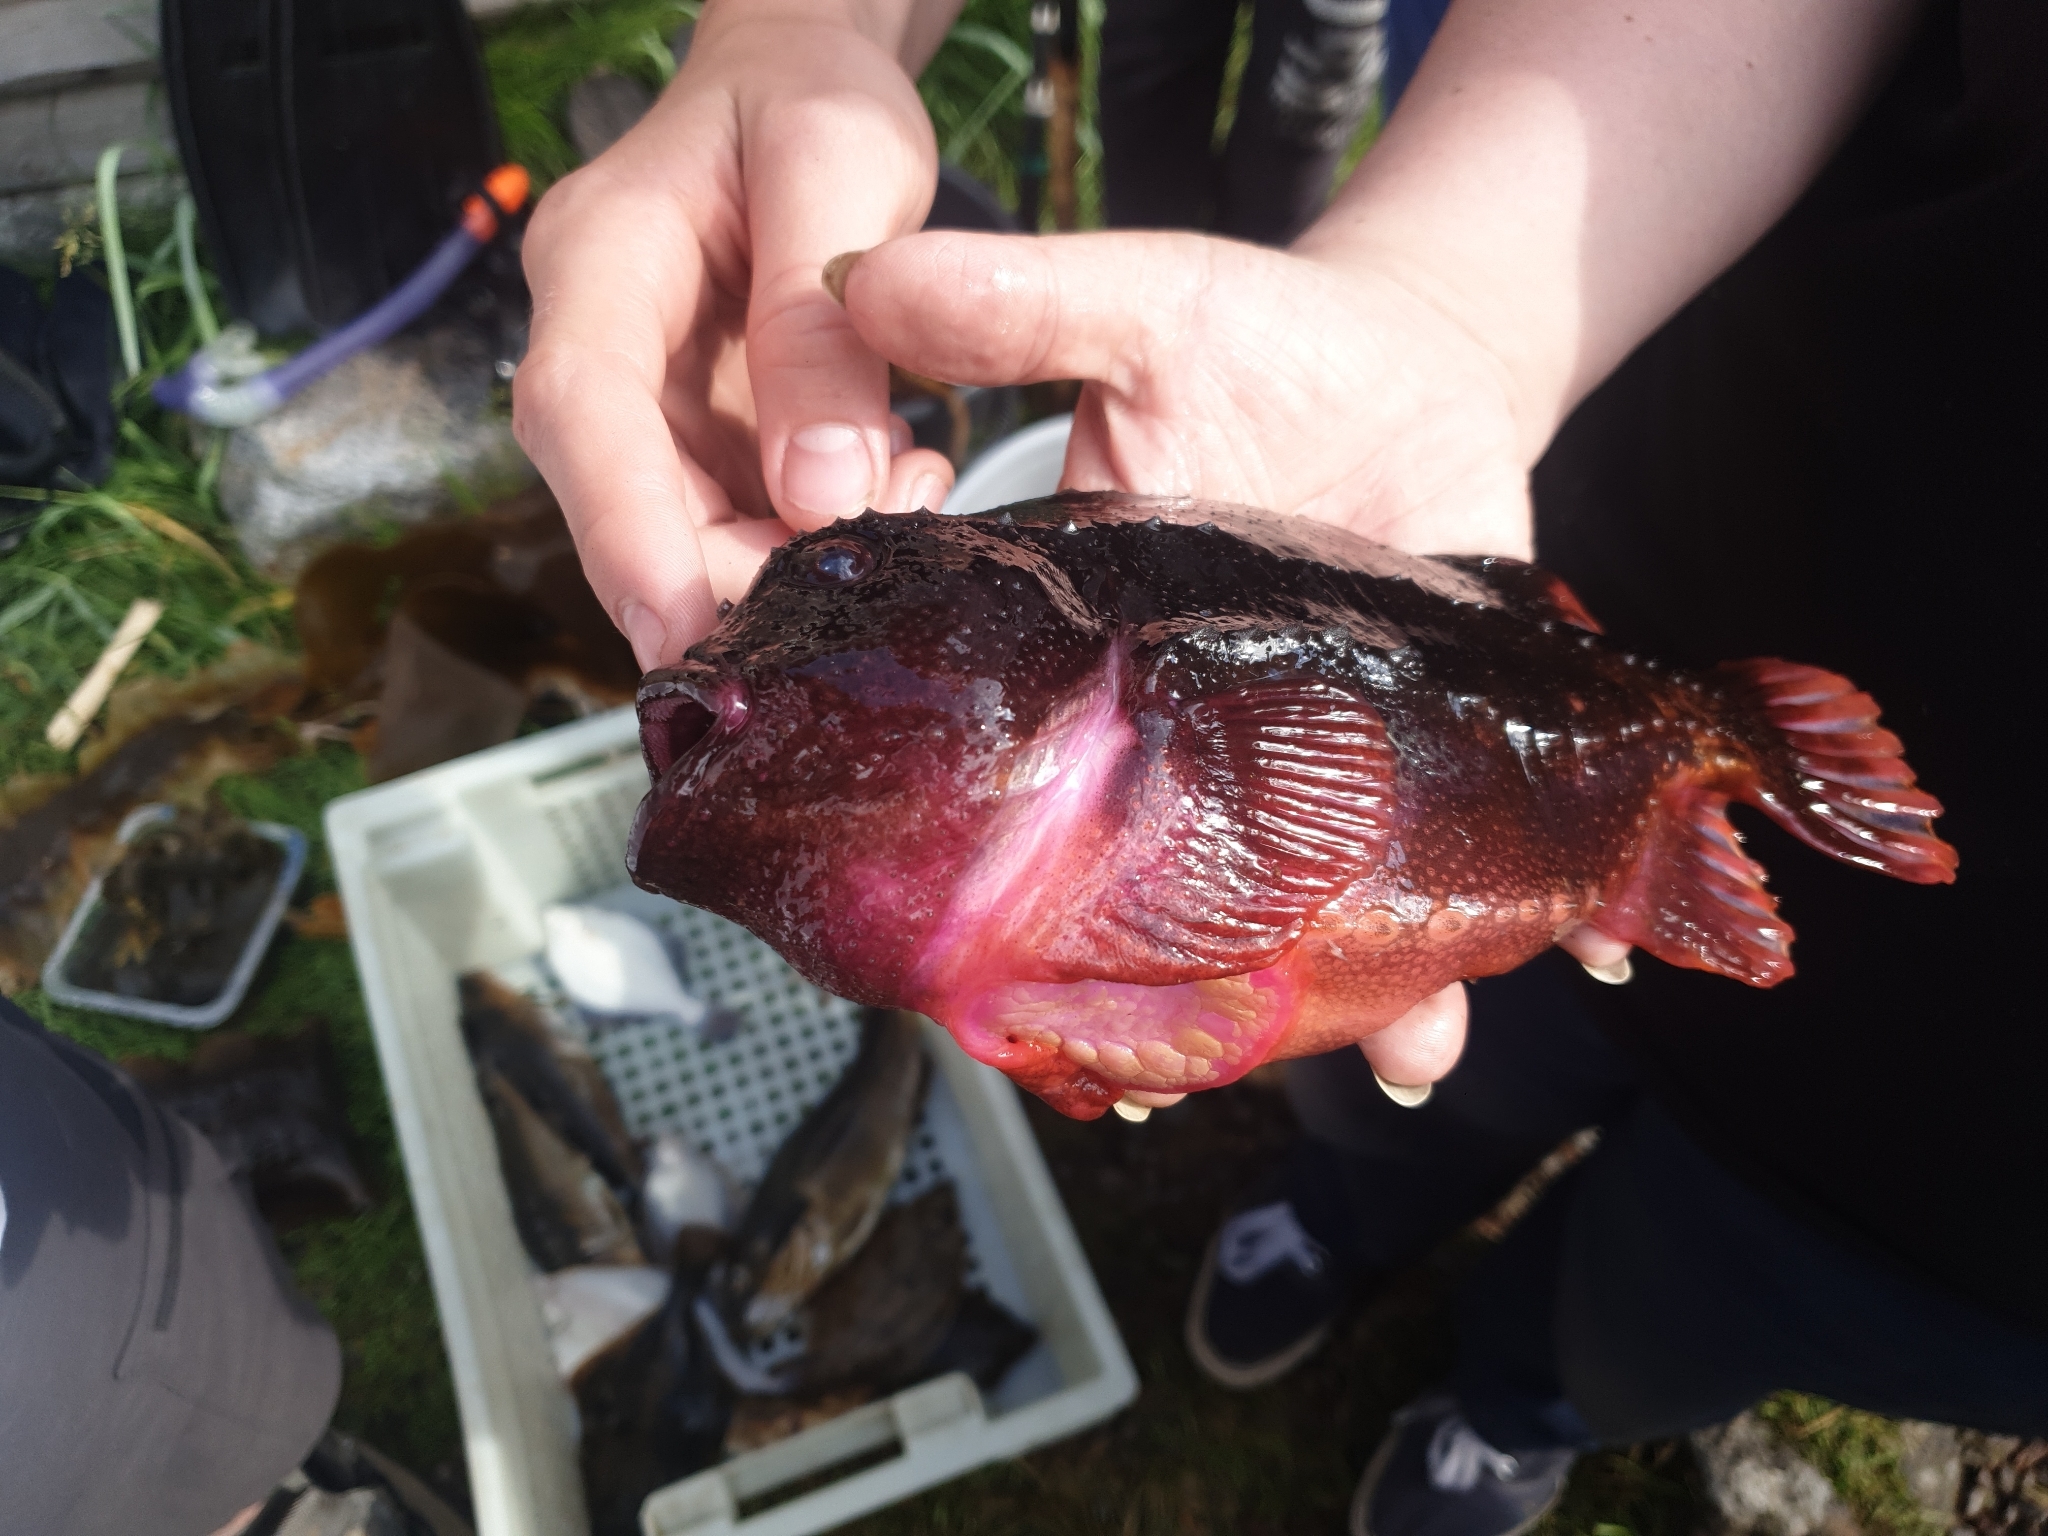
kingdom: Animalia
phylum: Chordata
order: Scorpaeniformes
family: Cyclopteridae
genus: Cyclopterus
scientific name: Cyclopterus lumpus
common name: Lumpsucker
